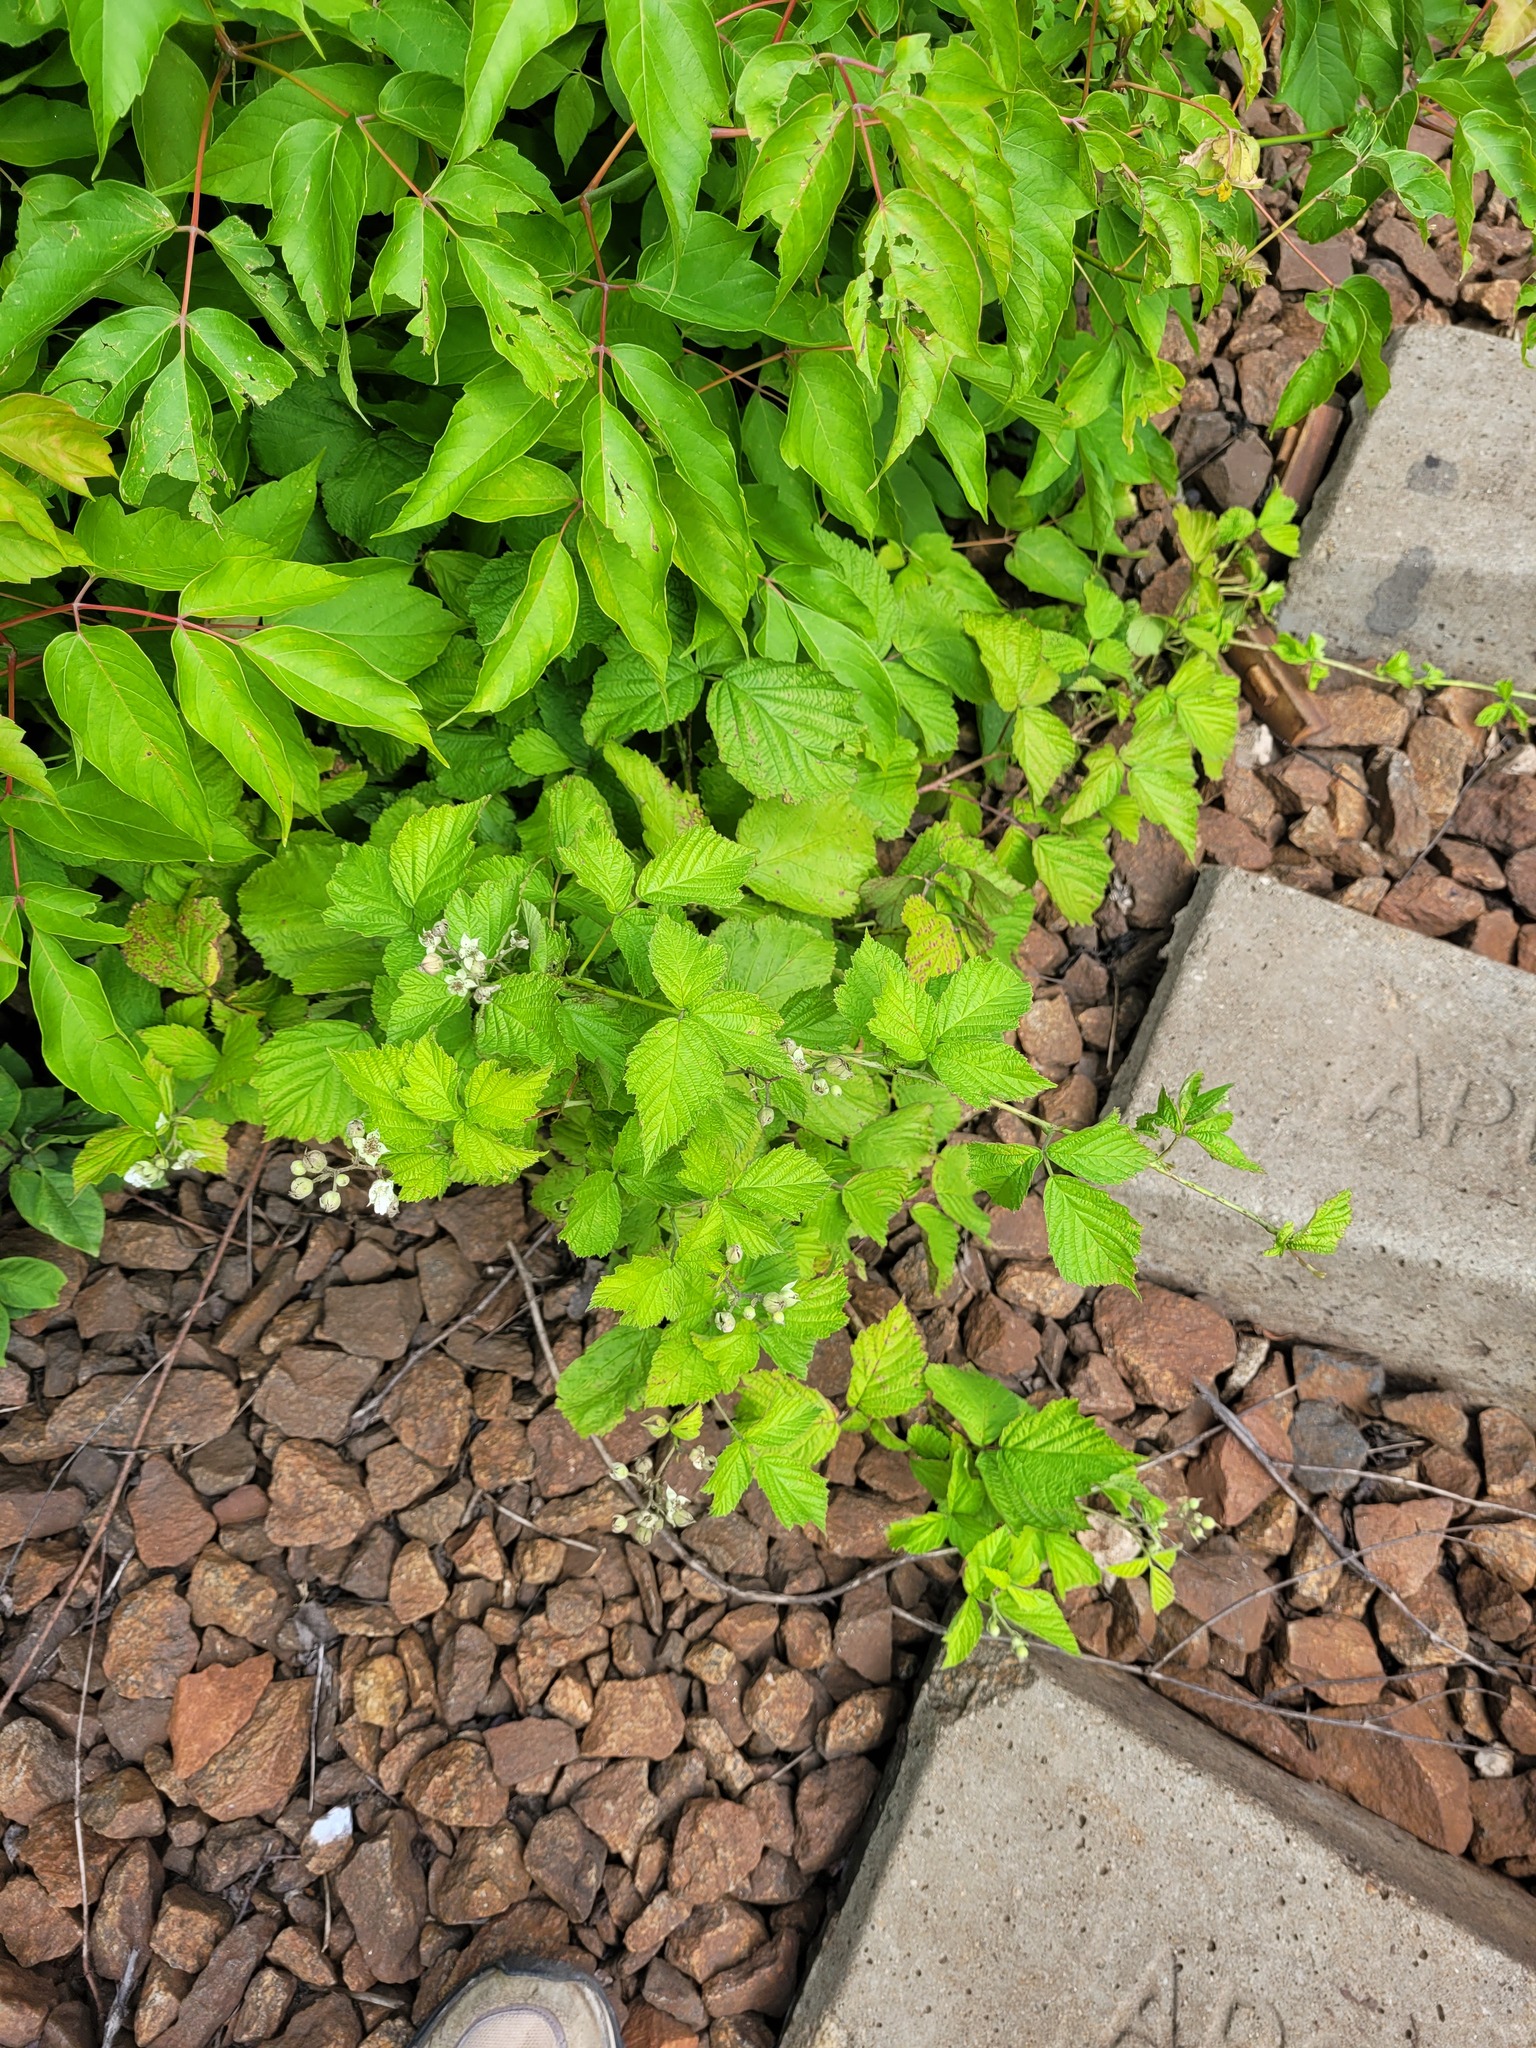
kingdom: Plantae
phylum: Tracheophyta
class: Magnoliopsida
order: Rosales
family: Rosaceae
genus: Rubus
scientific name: Rubus caesius
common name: Dewberry
